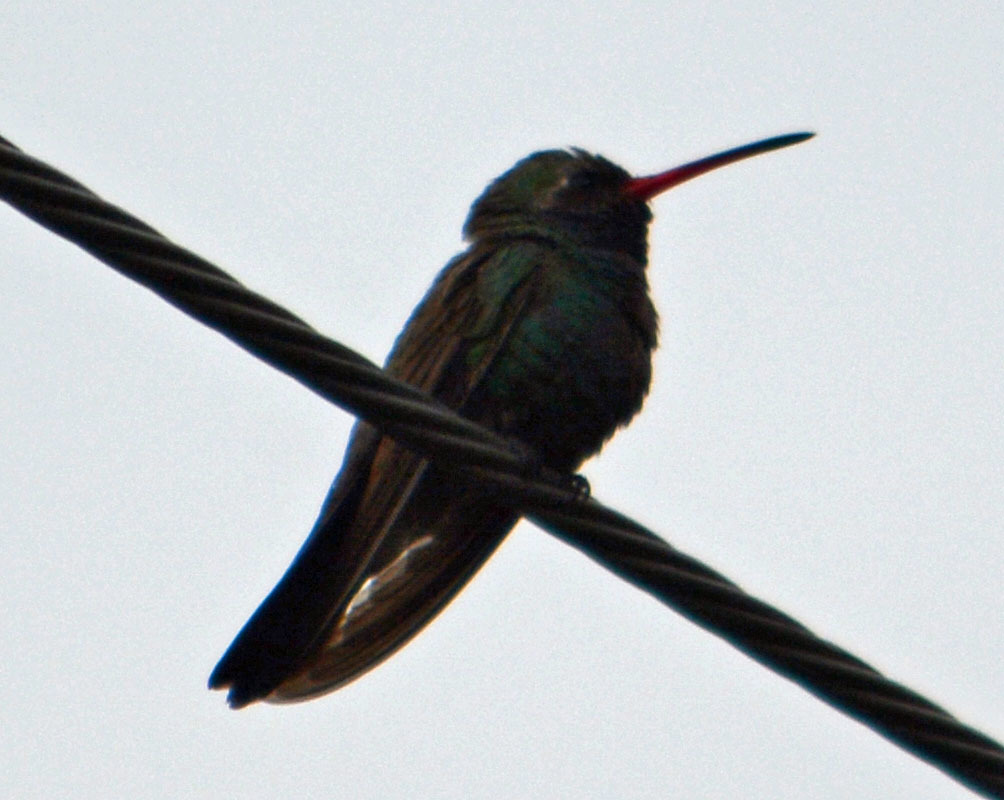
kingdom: Animalia
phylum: Chordata
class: Aves
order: Apodiformes
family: Trochilidae
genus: Cynanthus
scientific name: Cynanthus latirostris
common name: Broad-billed hummingbird
